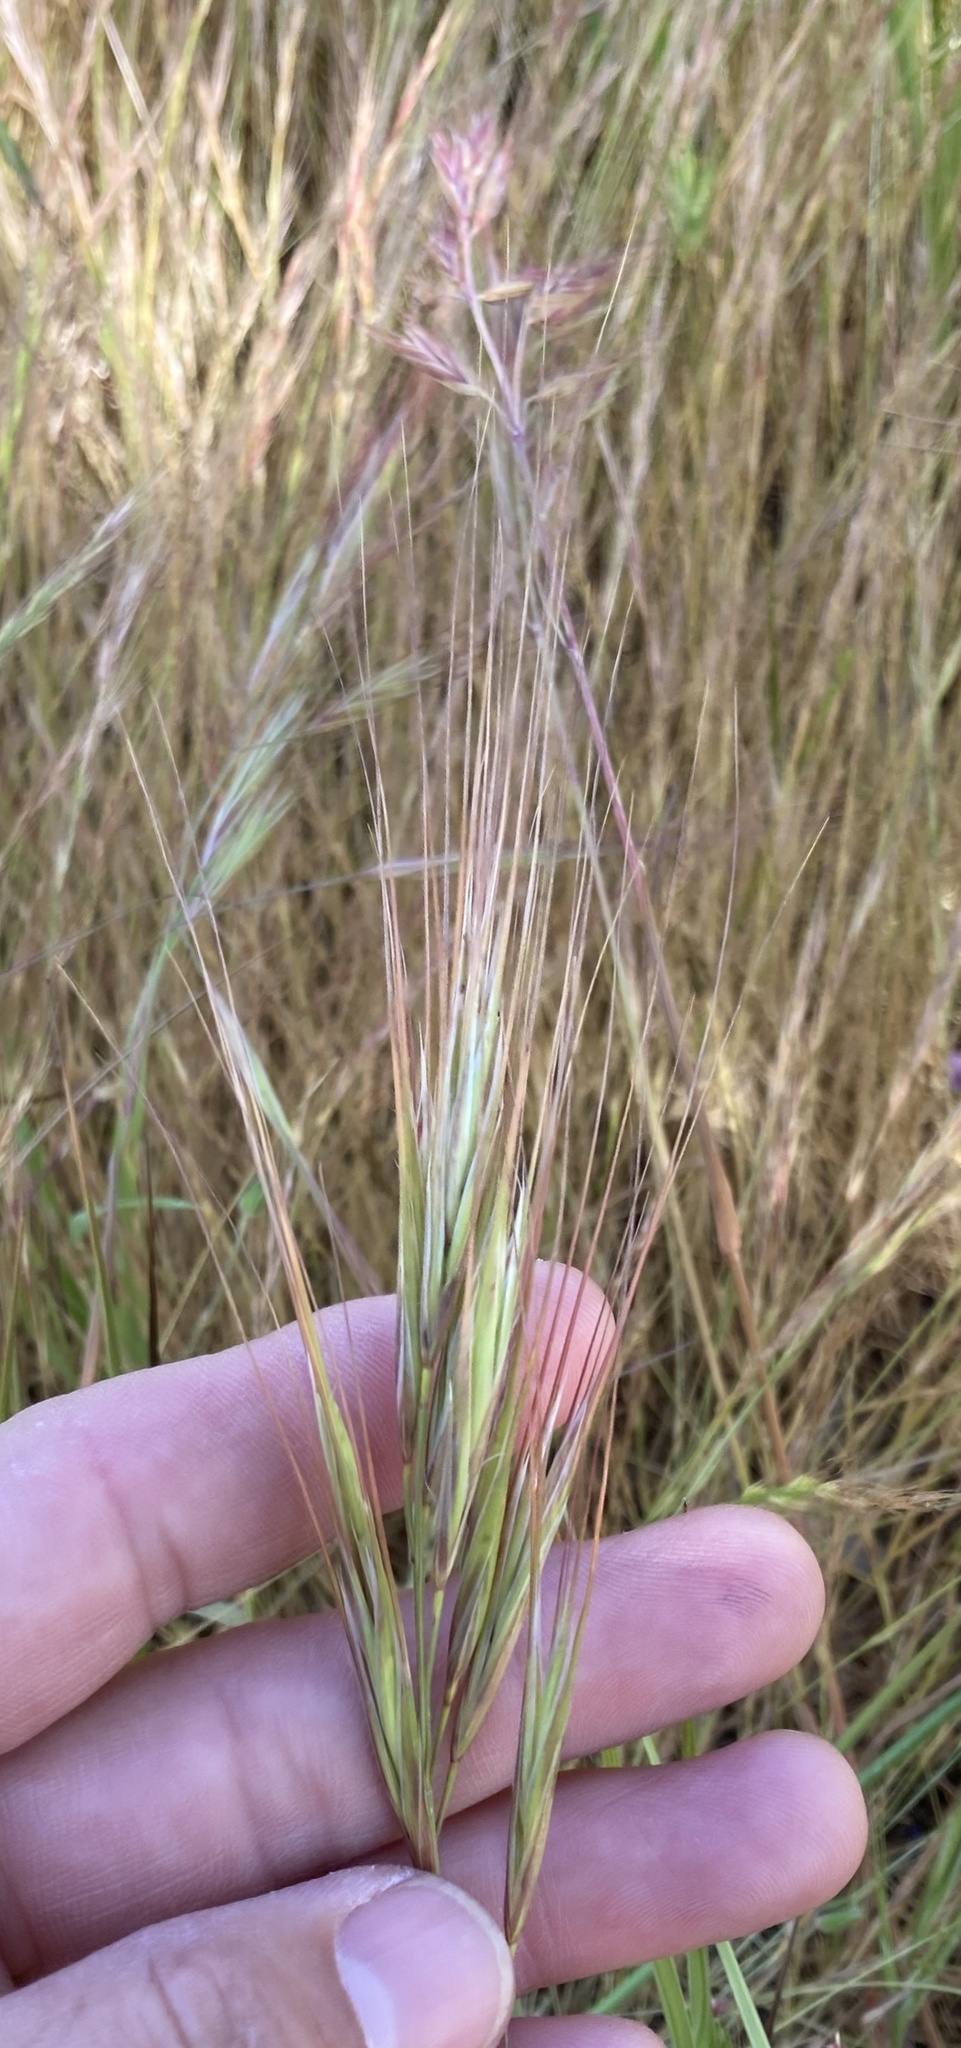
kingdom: Plantae
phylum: Tracheophyta
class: Liliopsida
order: Poales
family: Poaceae
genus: Bromus
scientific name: Bromus diandrus
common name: Ripgut brome
